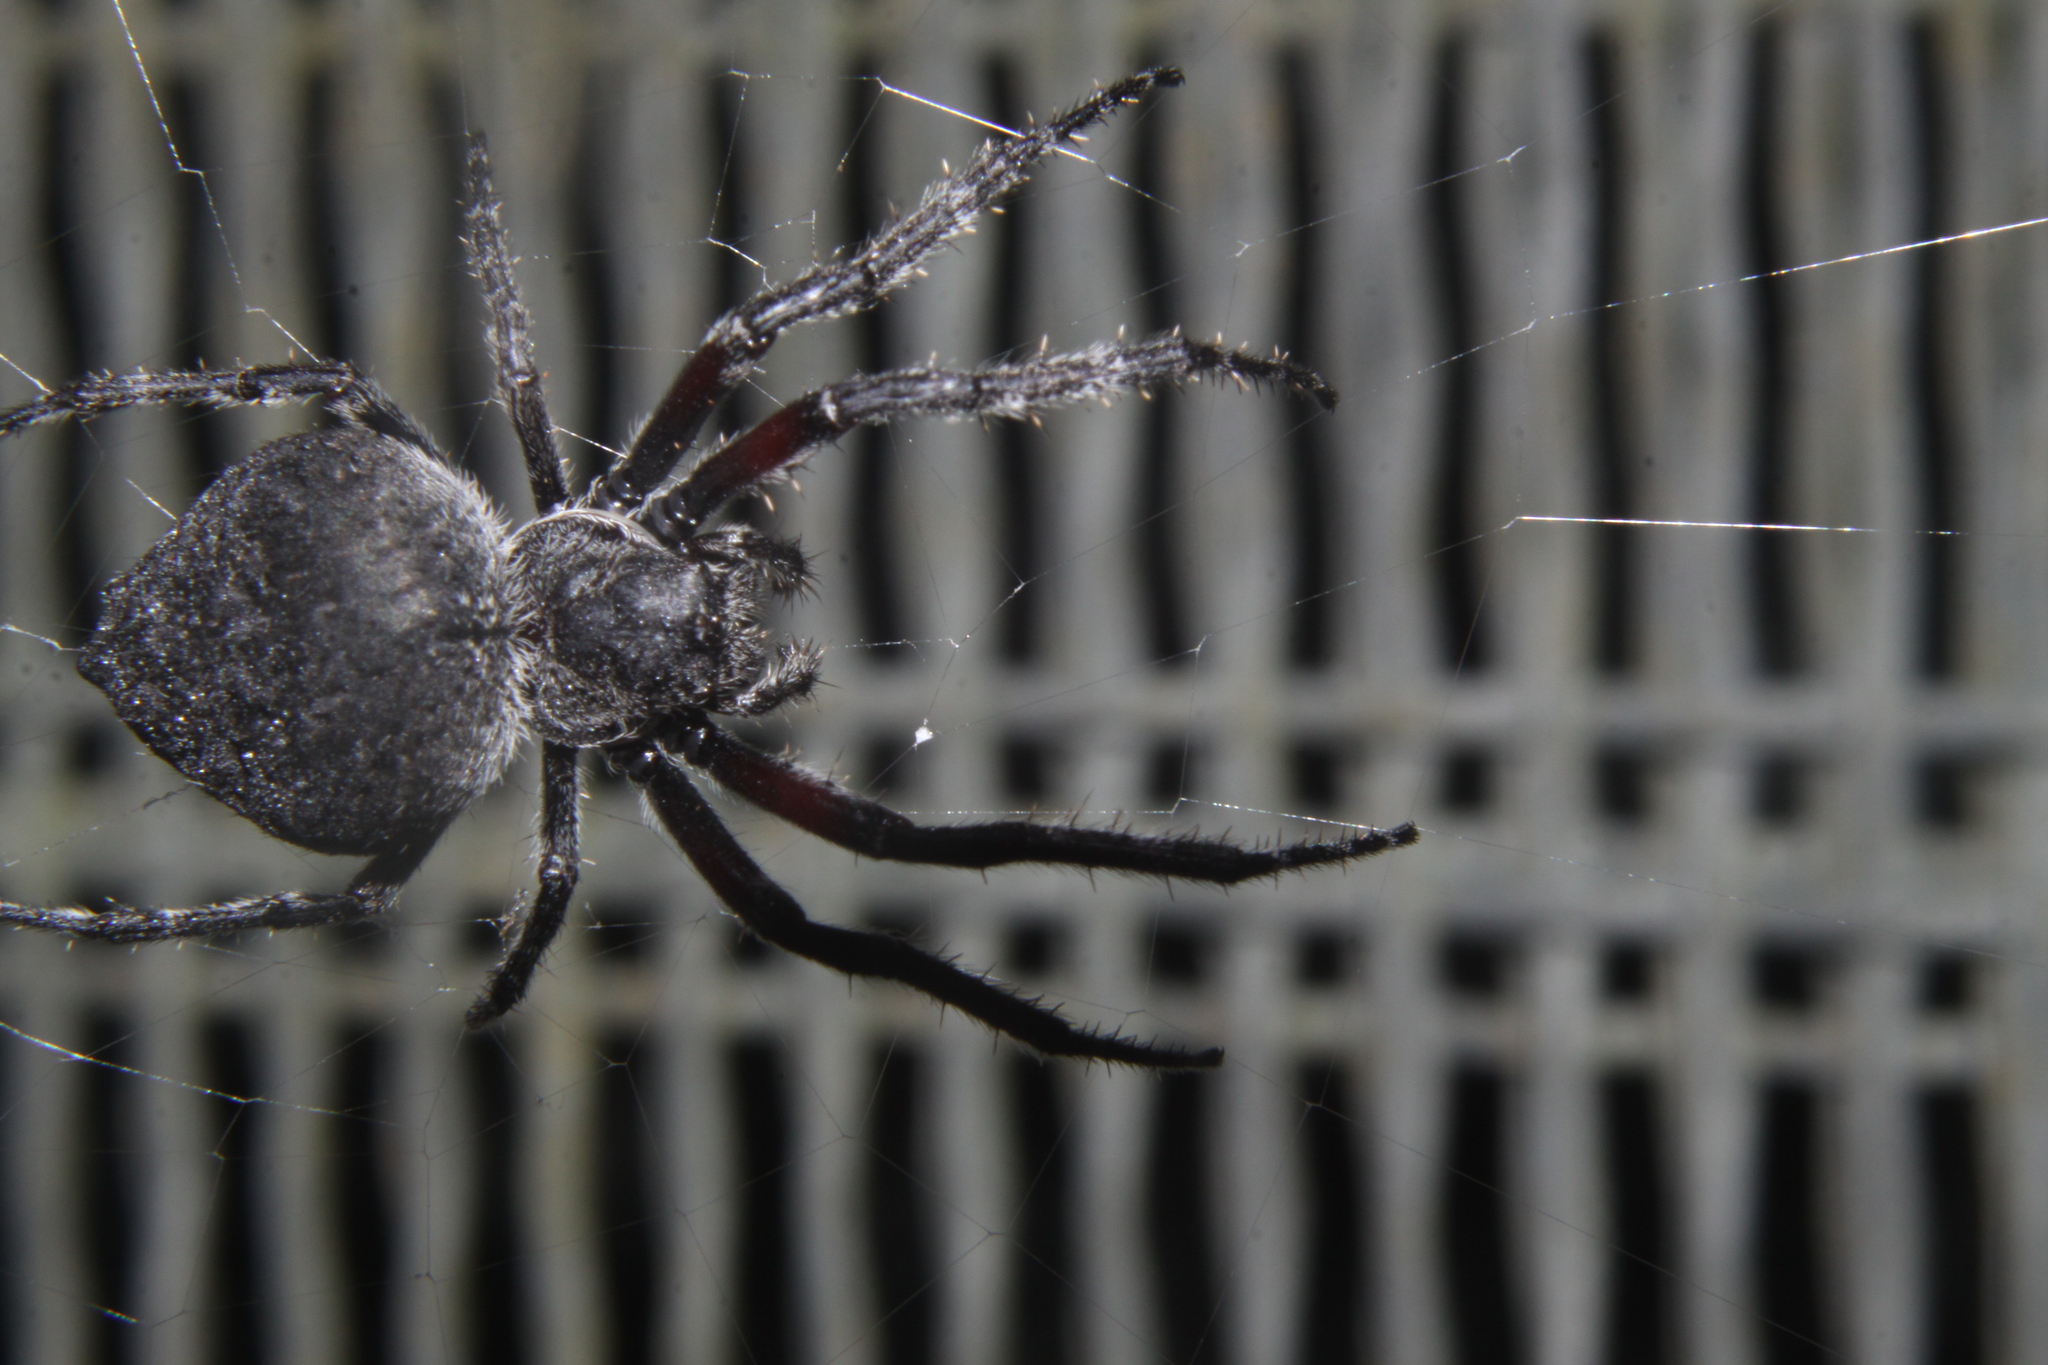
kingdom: Animalia
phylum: Arthropoda
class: Arachnida
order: Araneae
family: Araneidae
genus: Eriophora
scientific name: Eriophora pustulosa
